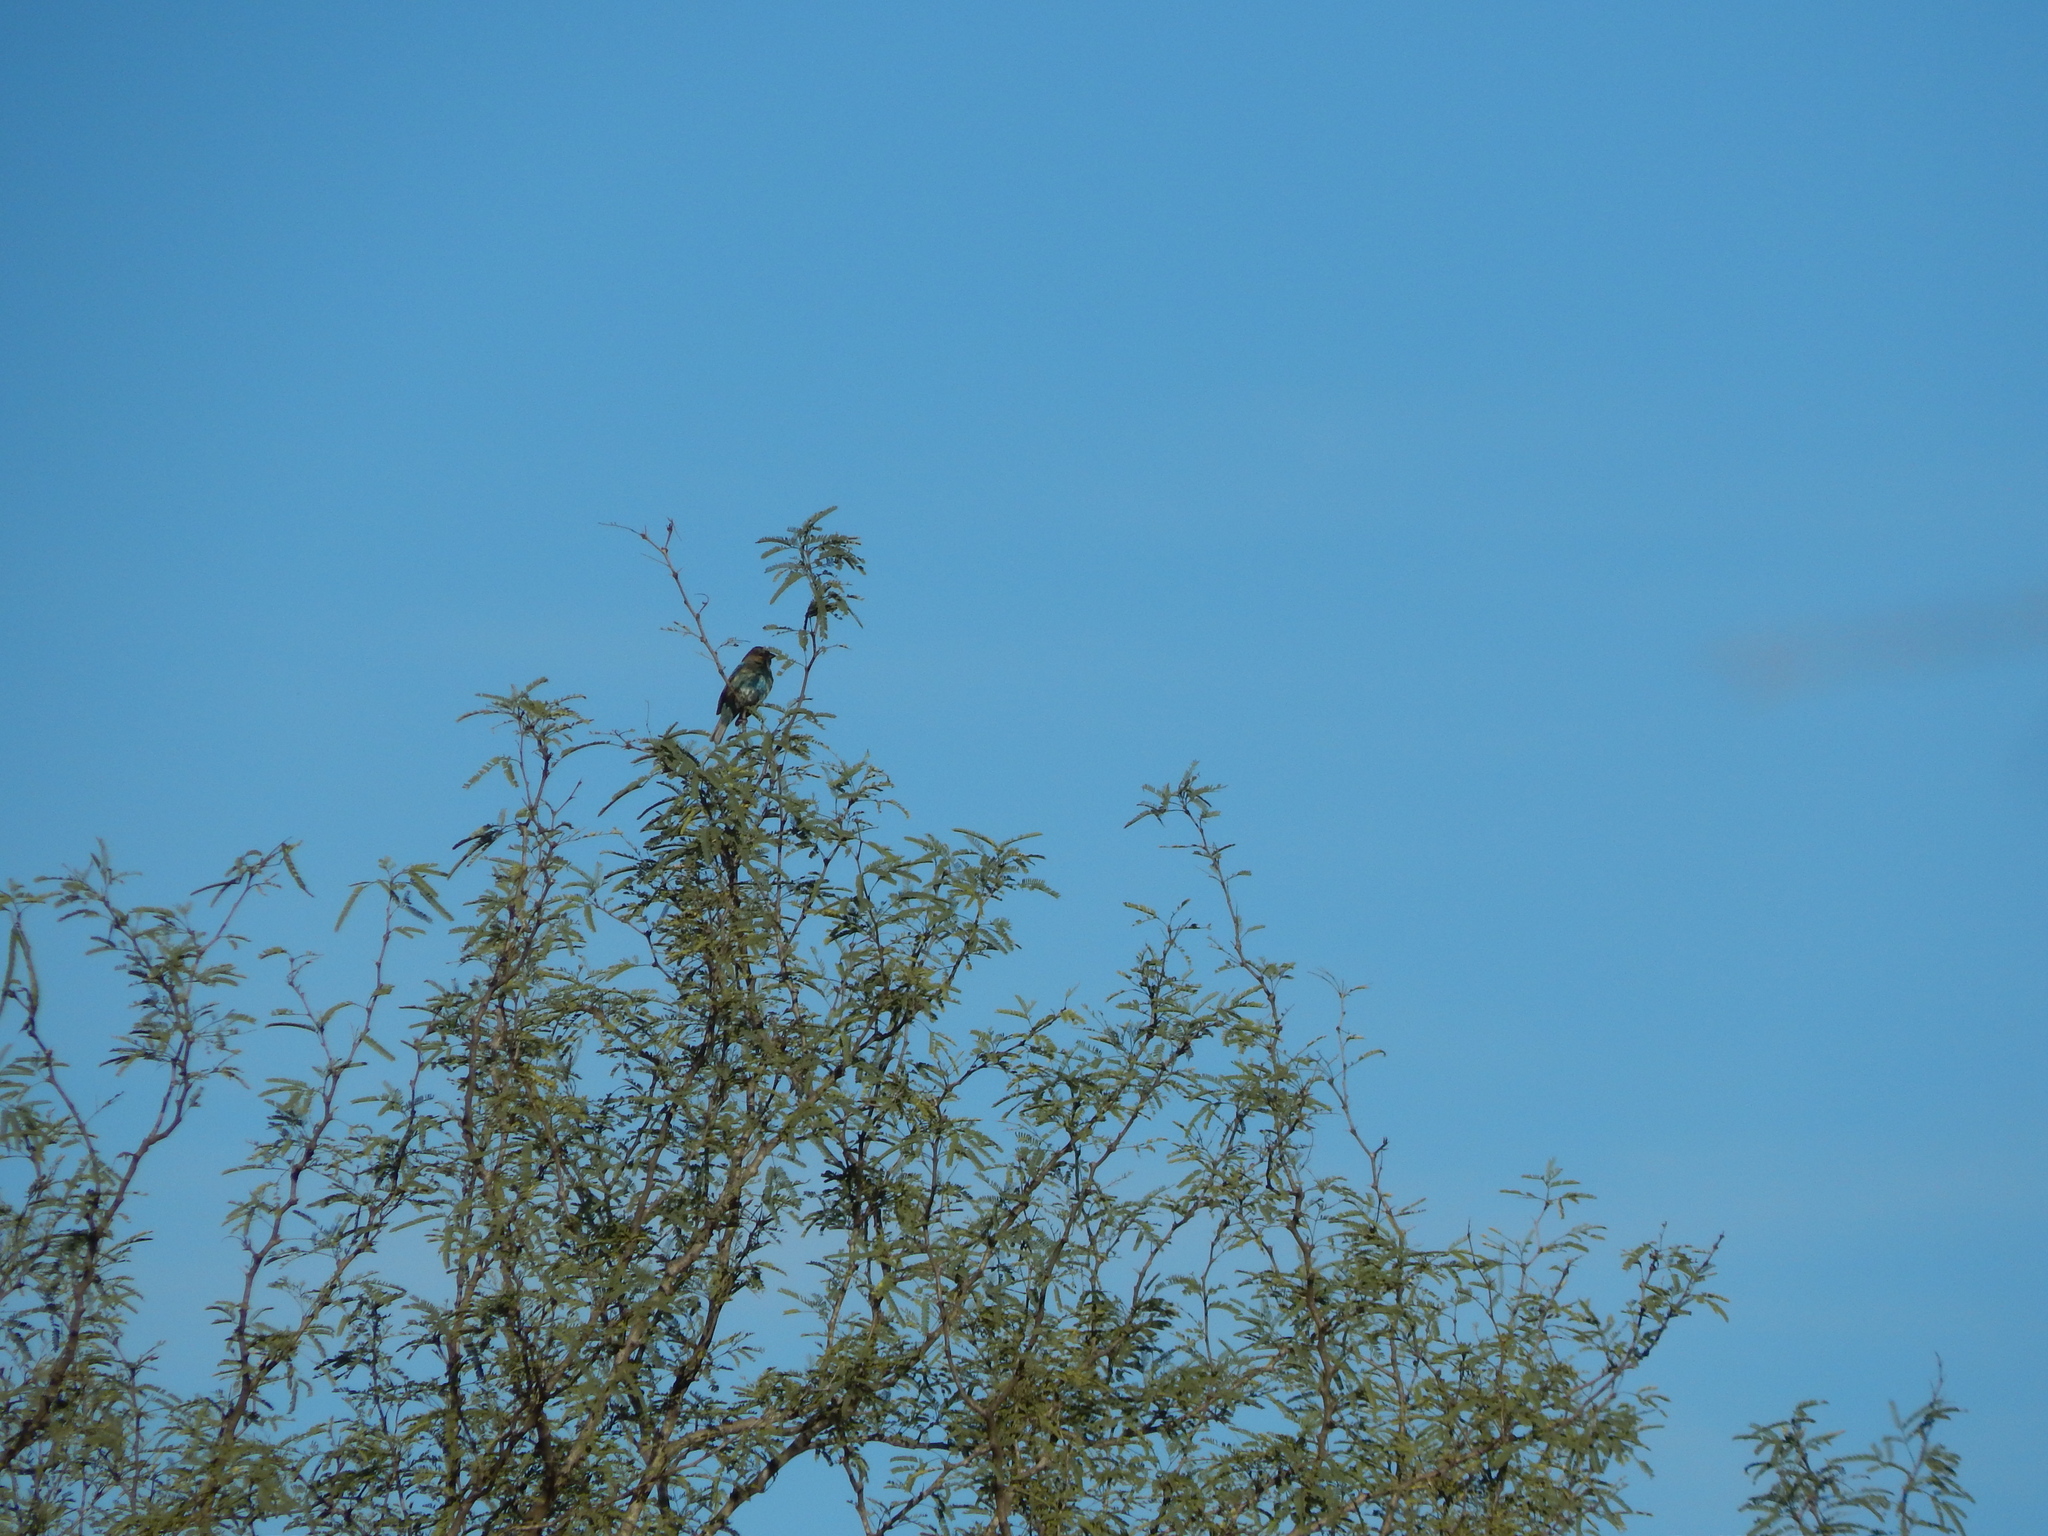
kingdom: Animalia
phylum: Chordata
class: Aves
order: Passeriformes
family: Cardinalidae
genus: Passerina
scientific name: Passerina cyanea
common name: Indigo bunting
